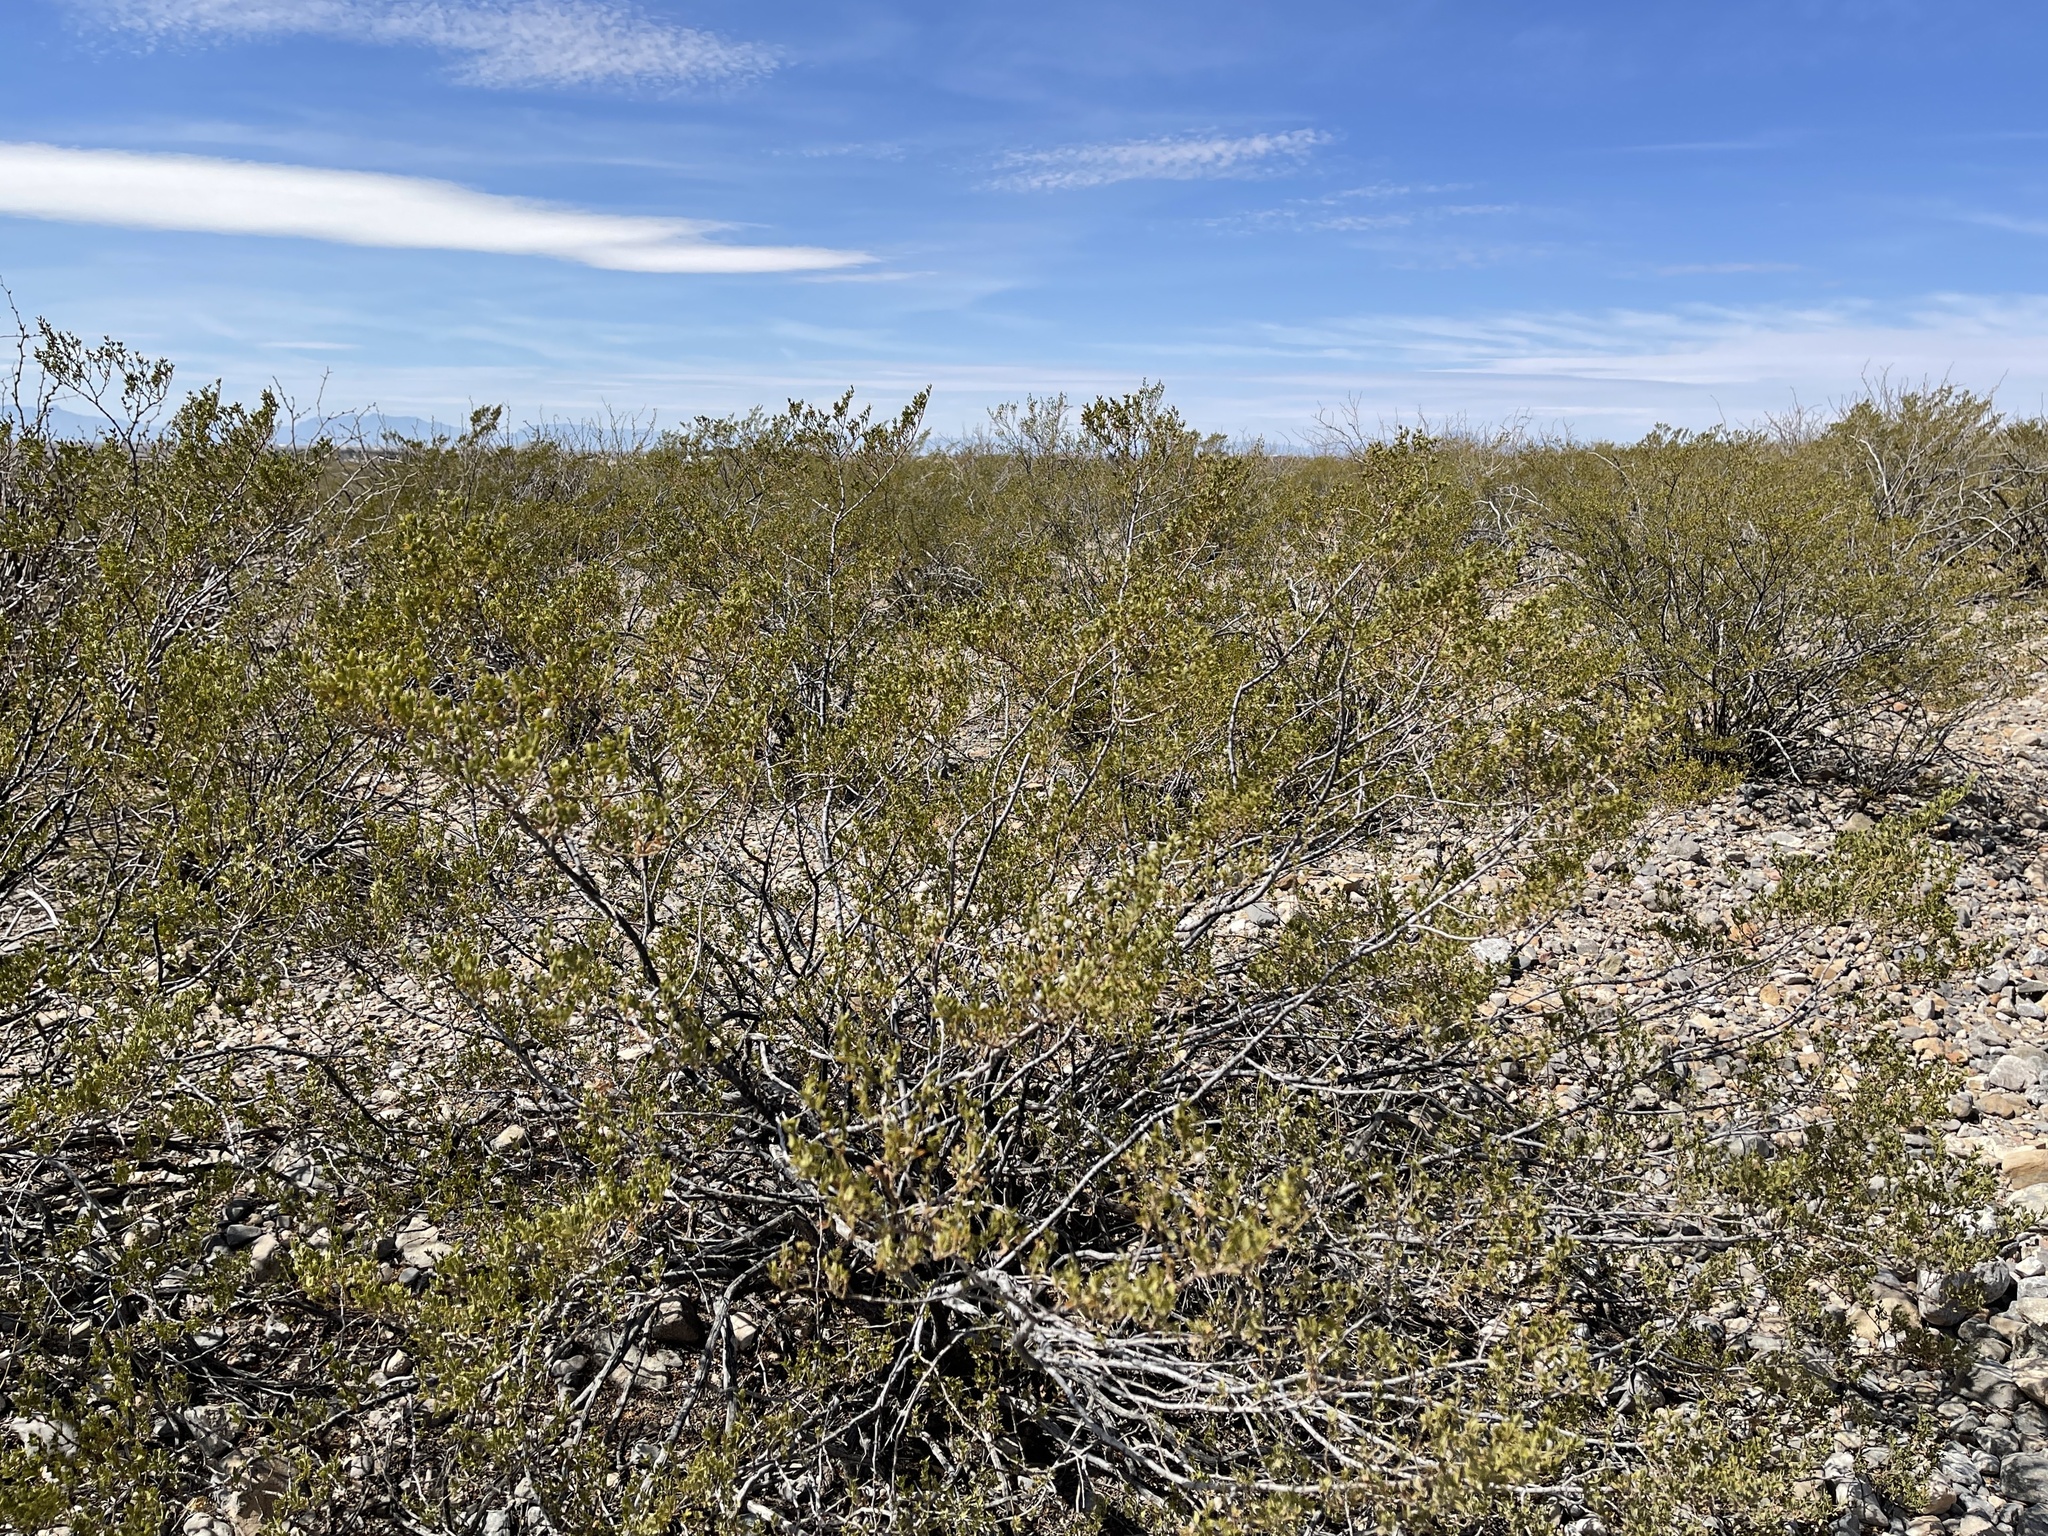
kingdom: Plantae
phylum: Tracheophyta
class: Magnoliopsida
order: Zygophyllales
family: Zygophyllaceae
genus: Larrea
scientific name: Larrea tridentata
